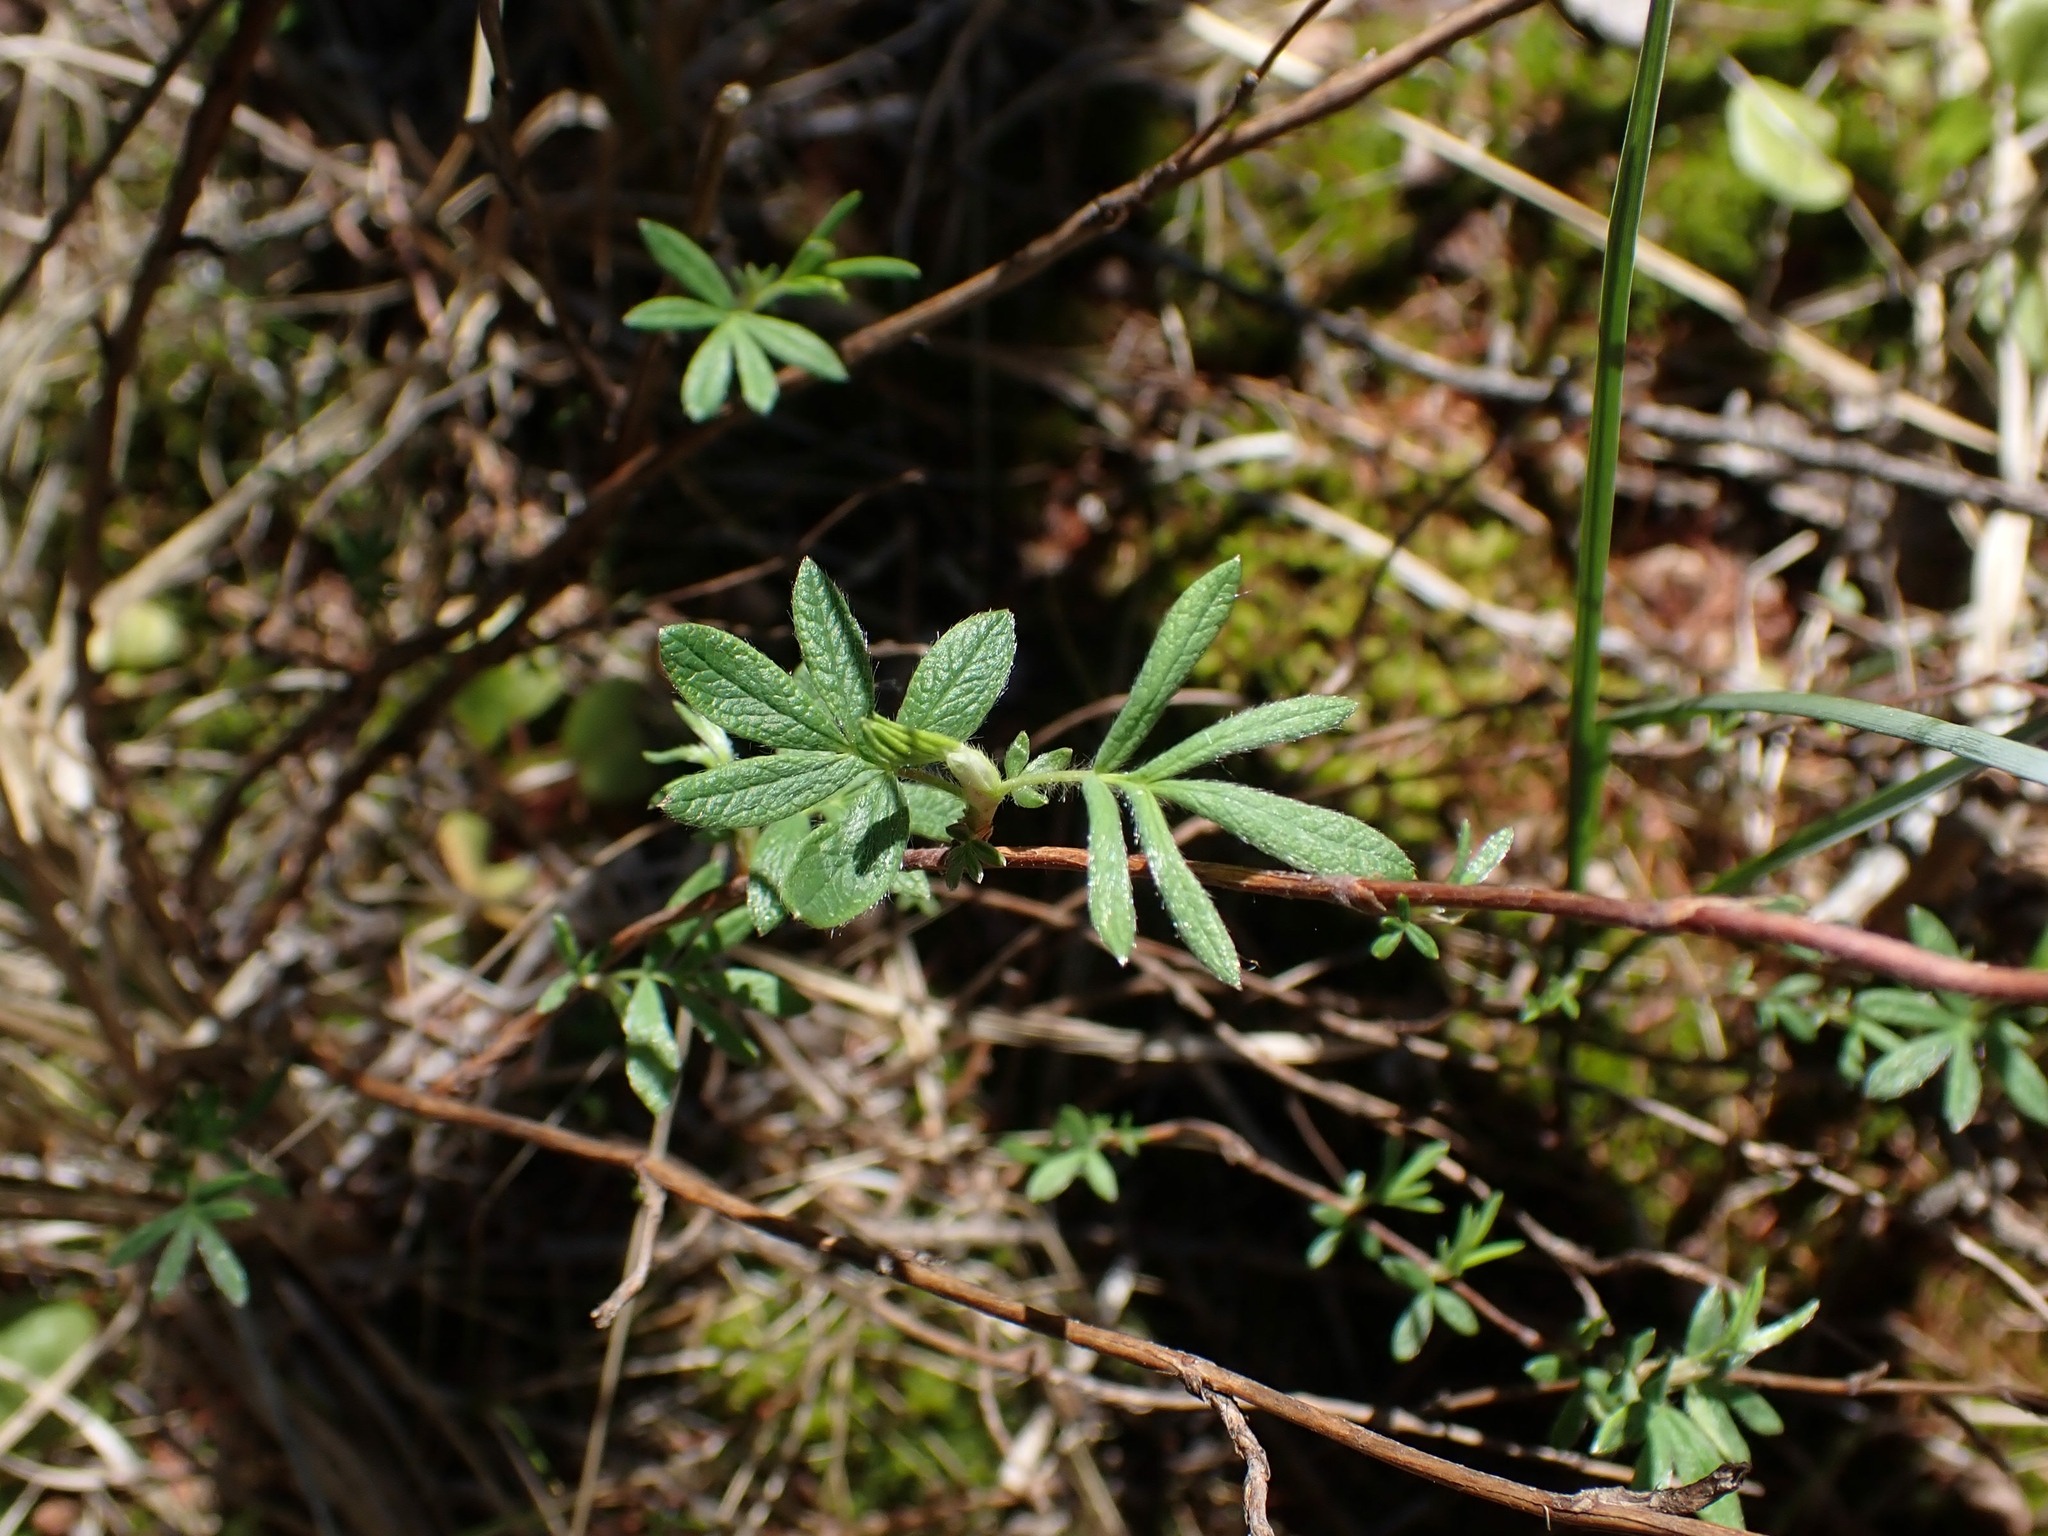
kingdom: Plantae
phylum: Tracheophyta
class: Magnoliopsida
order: Rosales
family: Rosaceae
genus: Dasiphora
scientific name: Dasiphora fruticosa
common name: Shrubby cinquefoil
